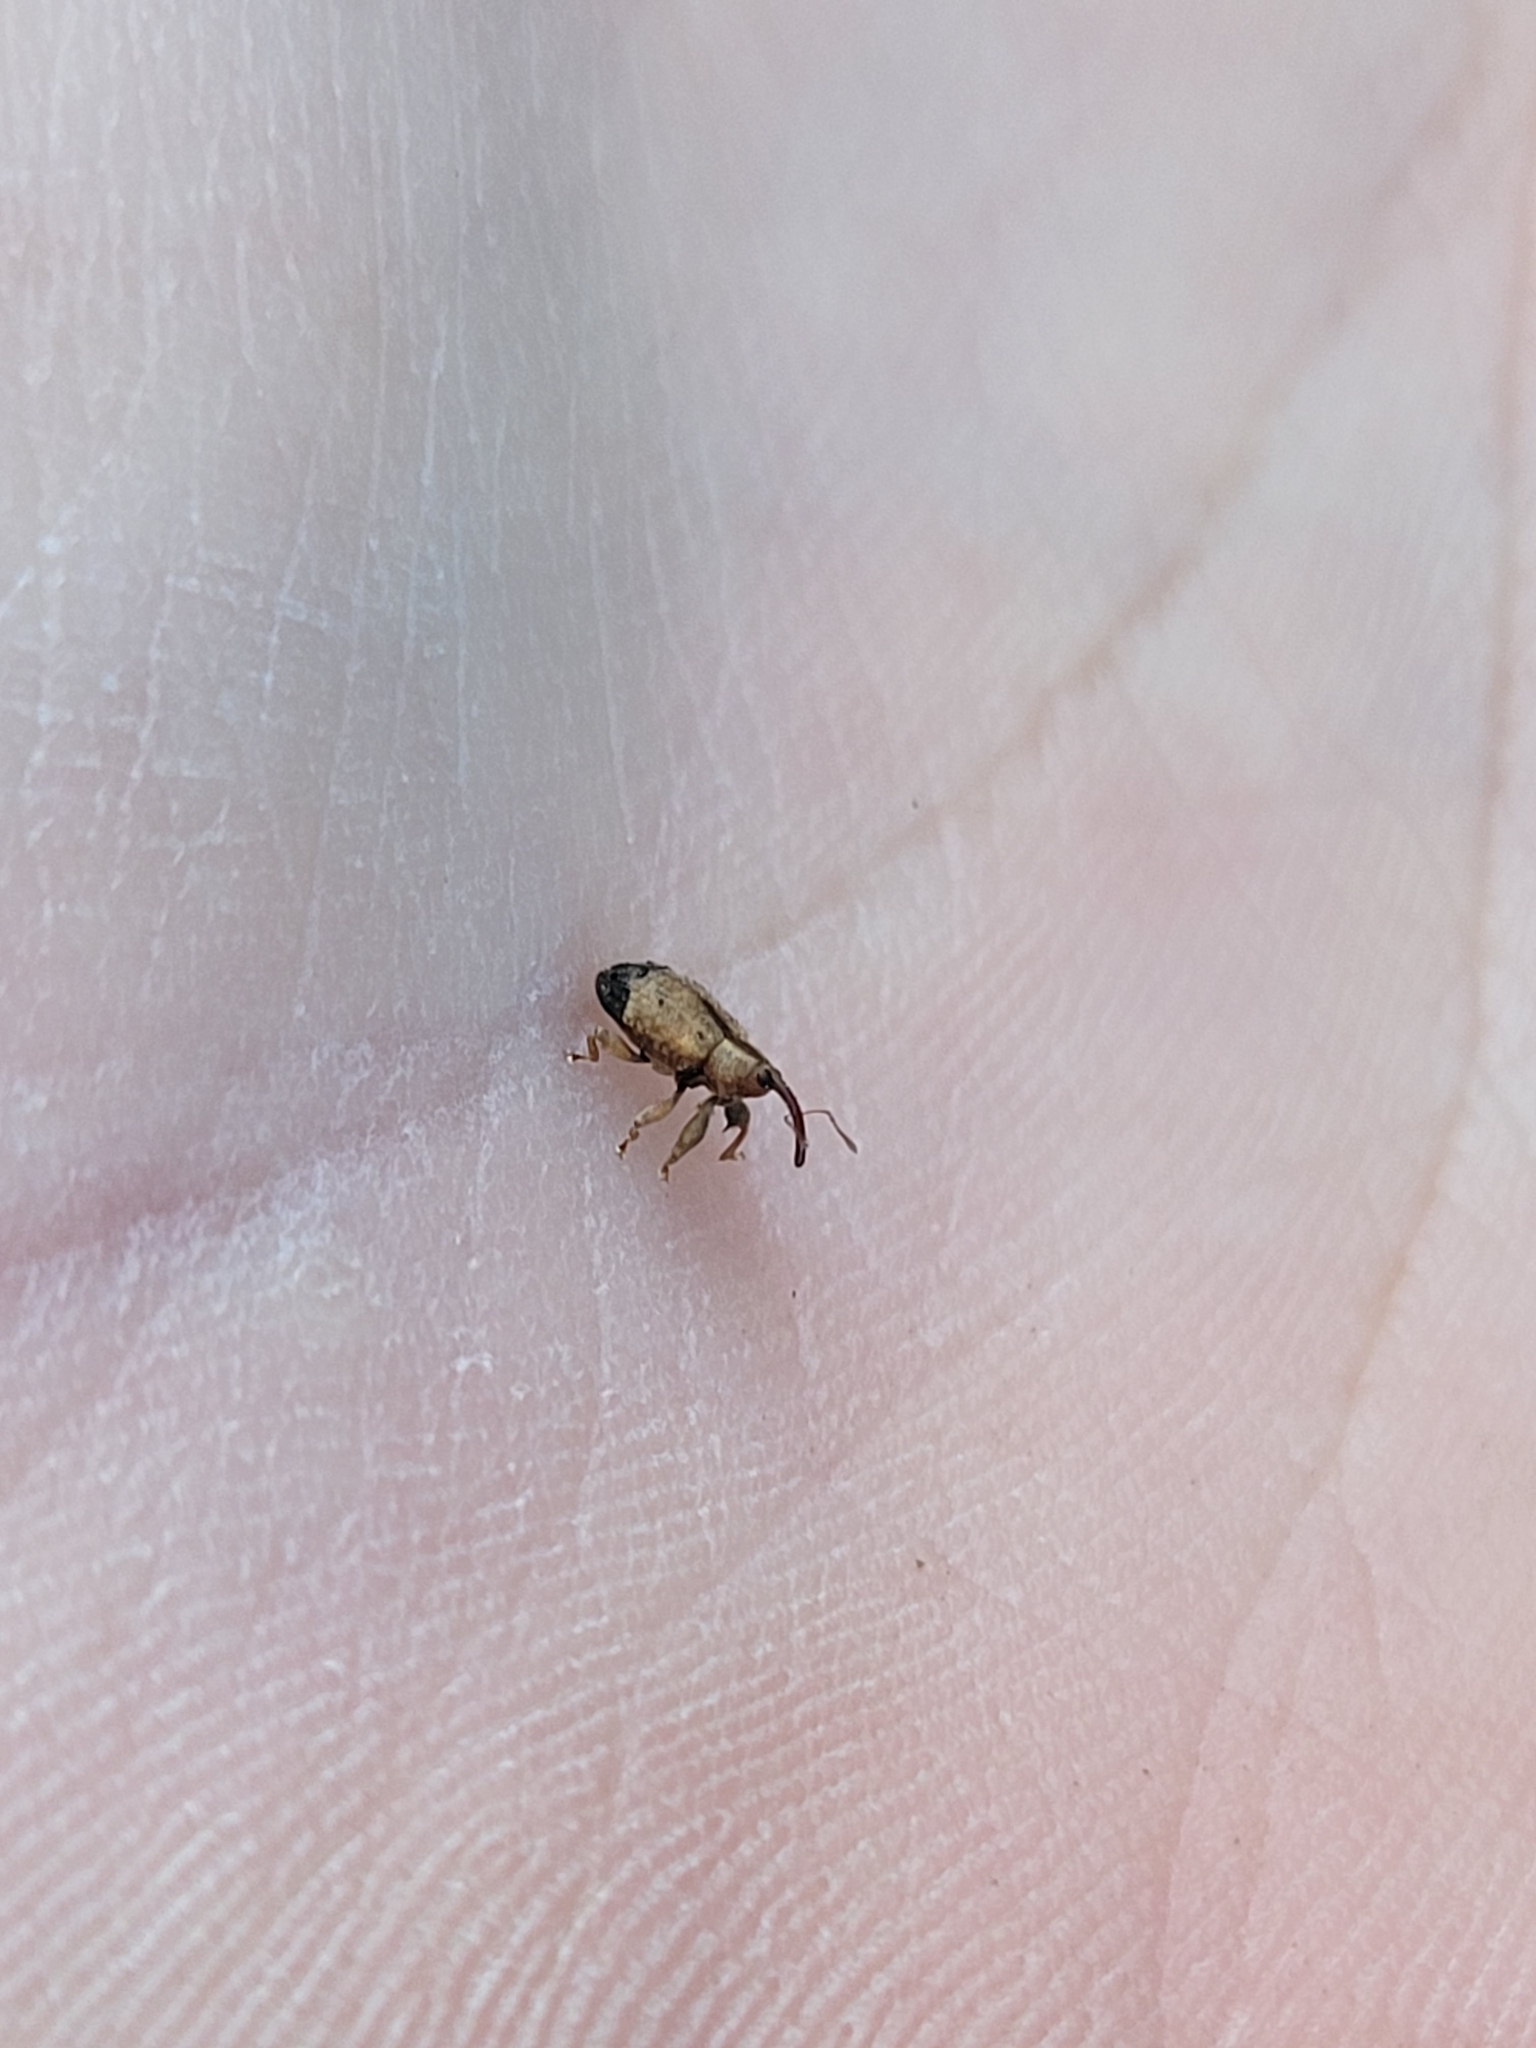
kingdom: Animalia
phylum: Arthropoda
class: Insecta
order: Coleoptera
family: Curculionidae
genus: Ochyromera
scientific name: Ochyromera ligustri
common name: Weevil
